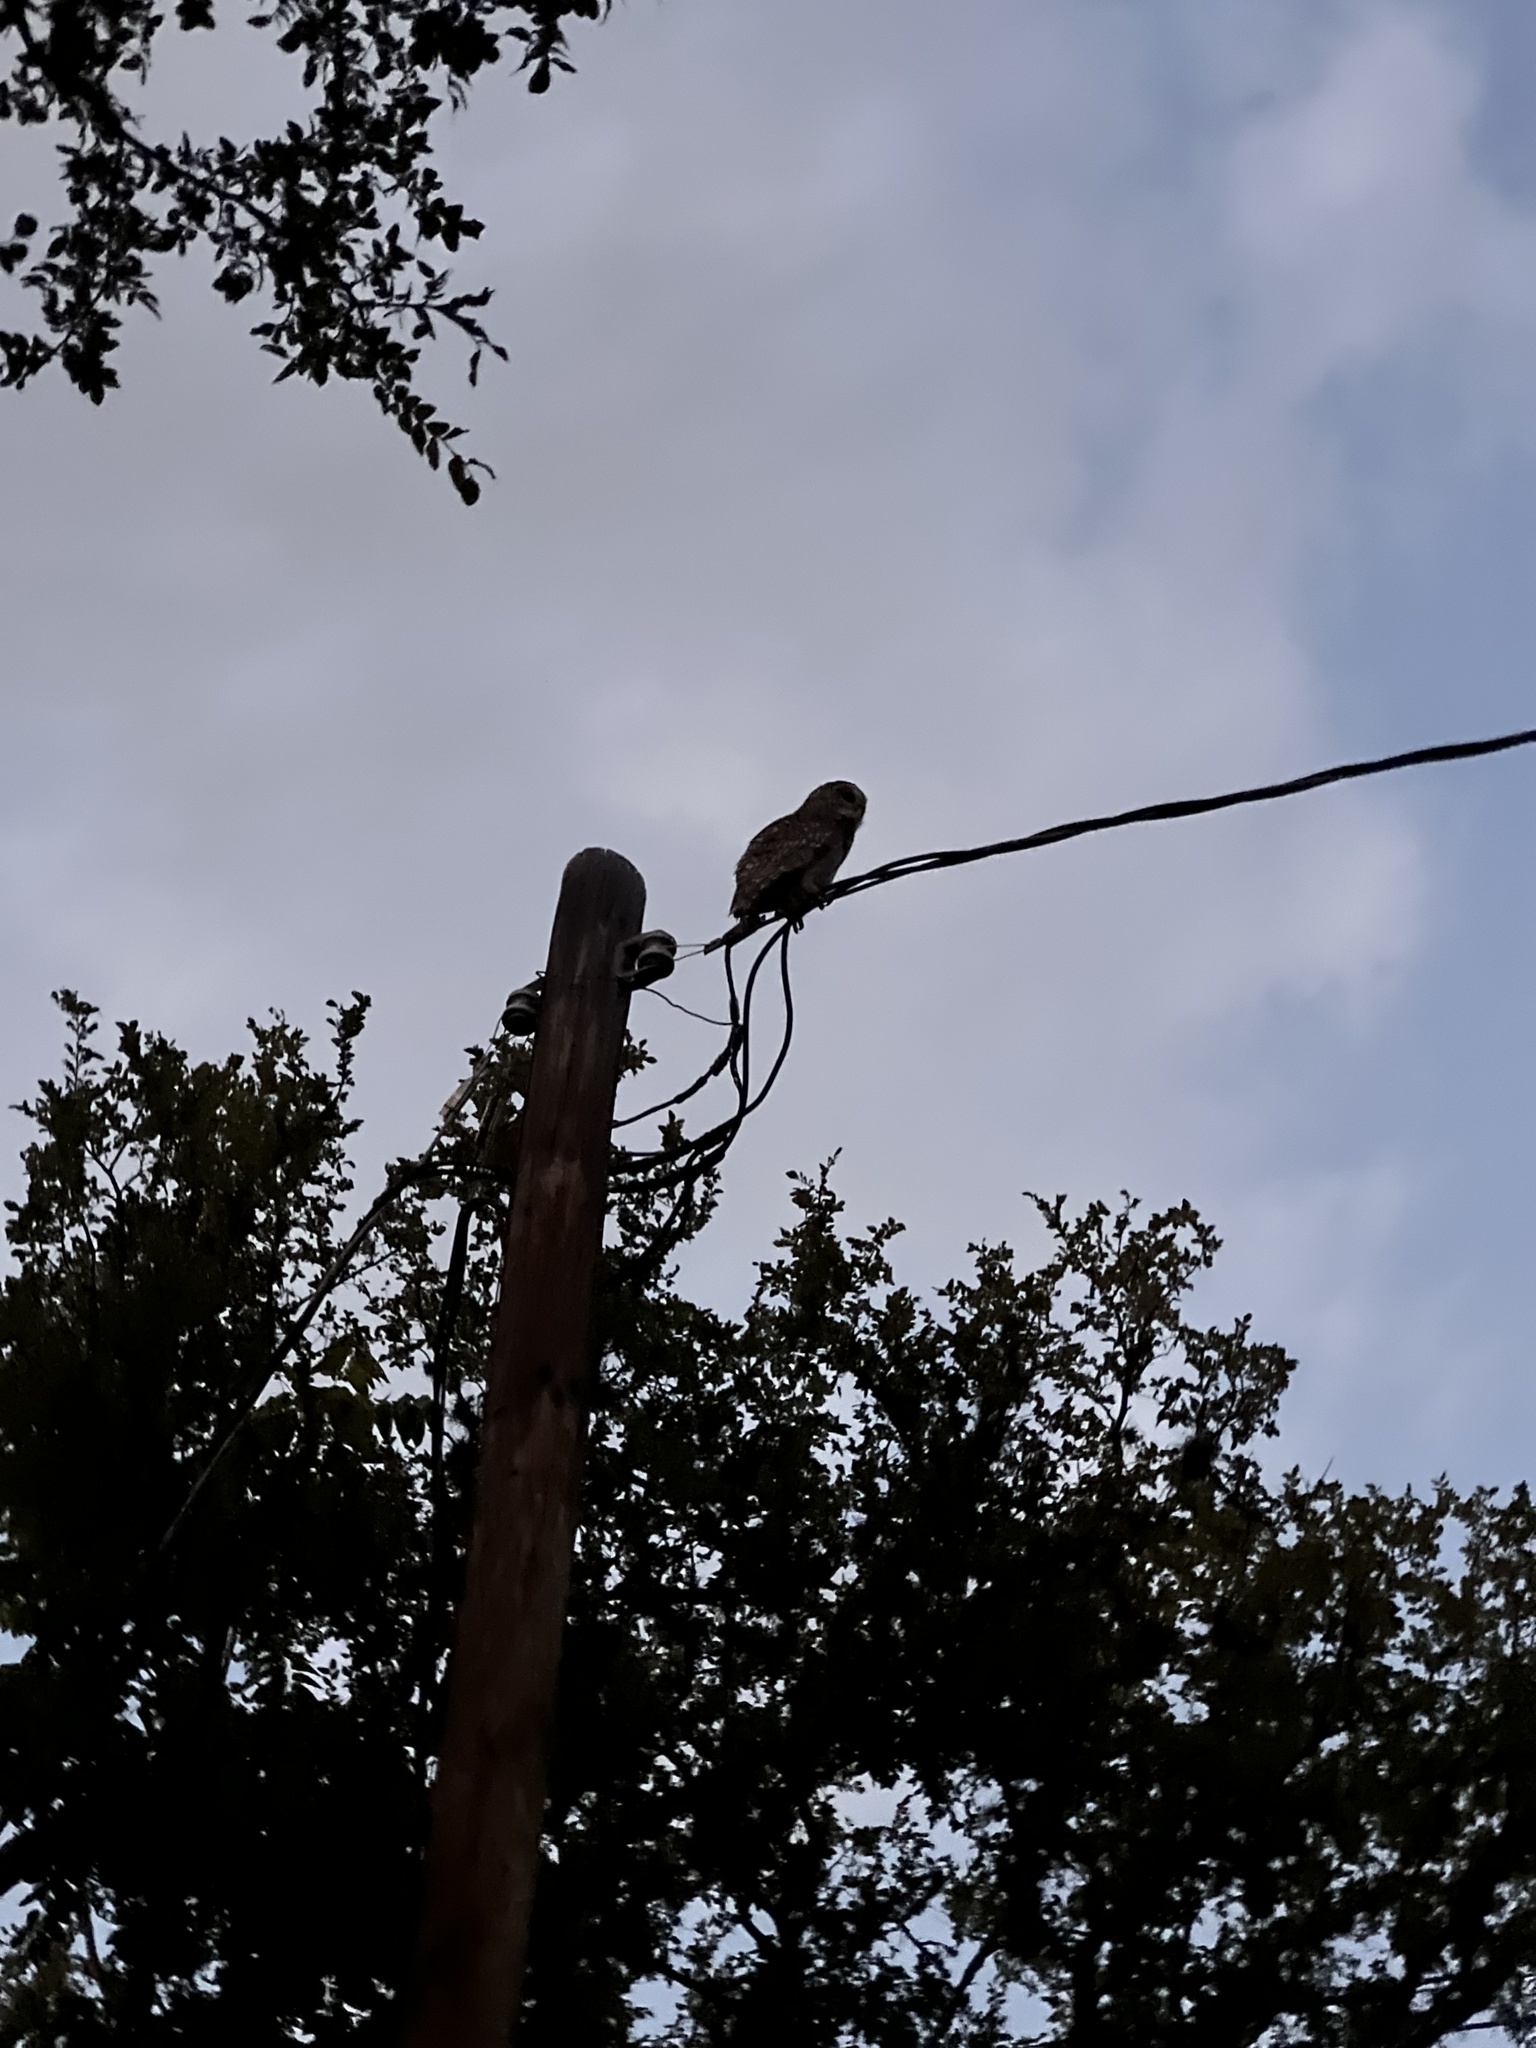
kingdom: Animalia
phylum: Chordata
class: Aves
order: Strigiformes
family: Strigidae
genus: Strix
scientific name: Strix varia
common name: Barred owl
